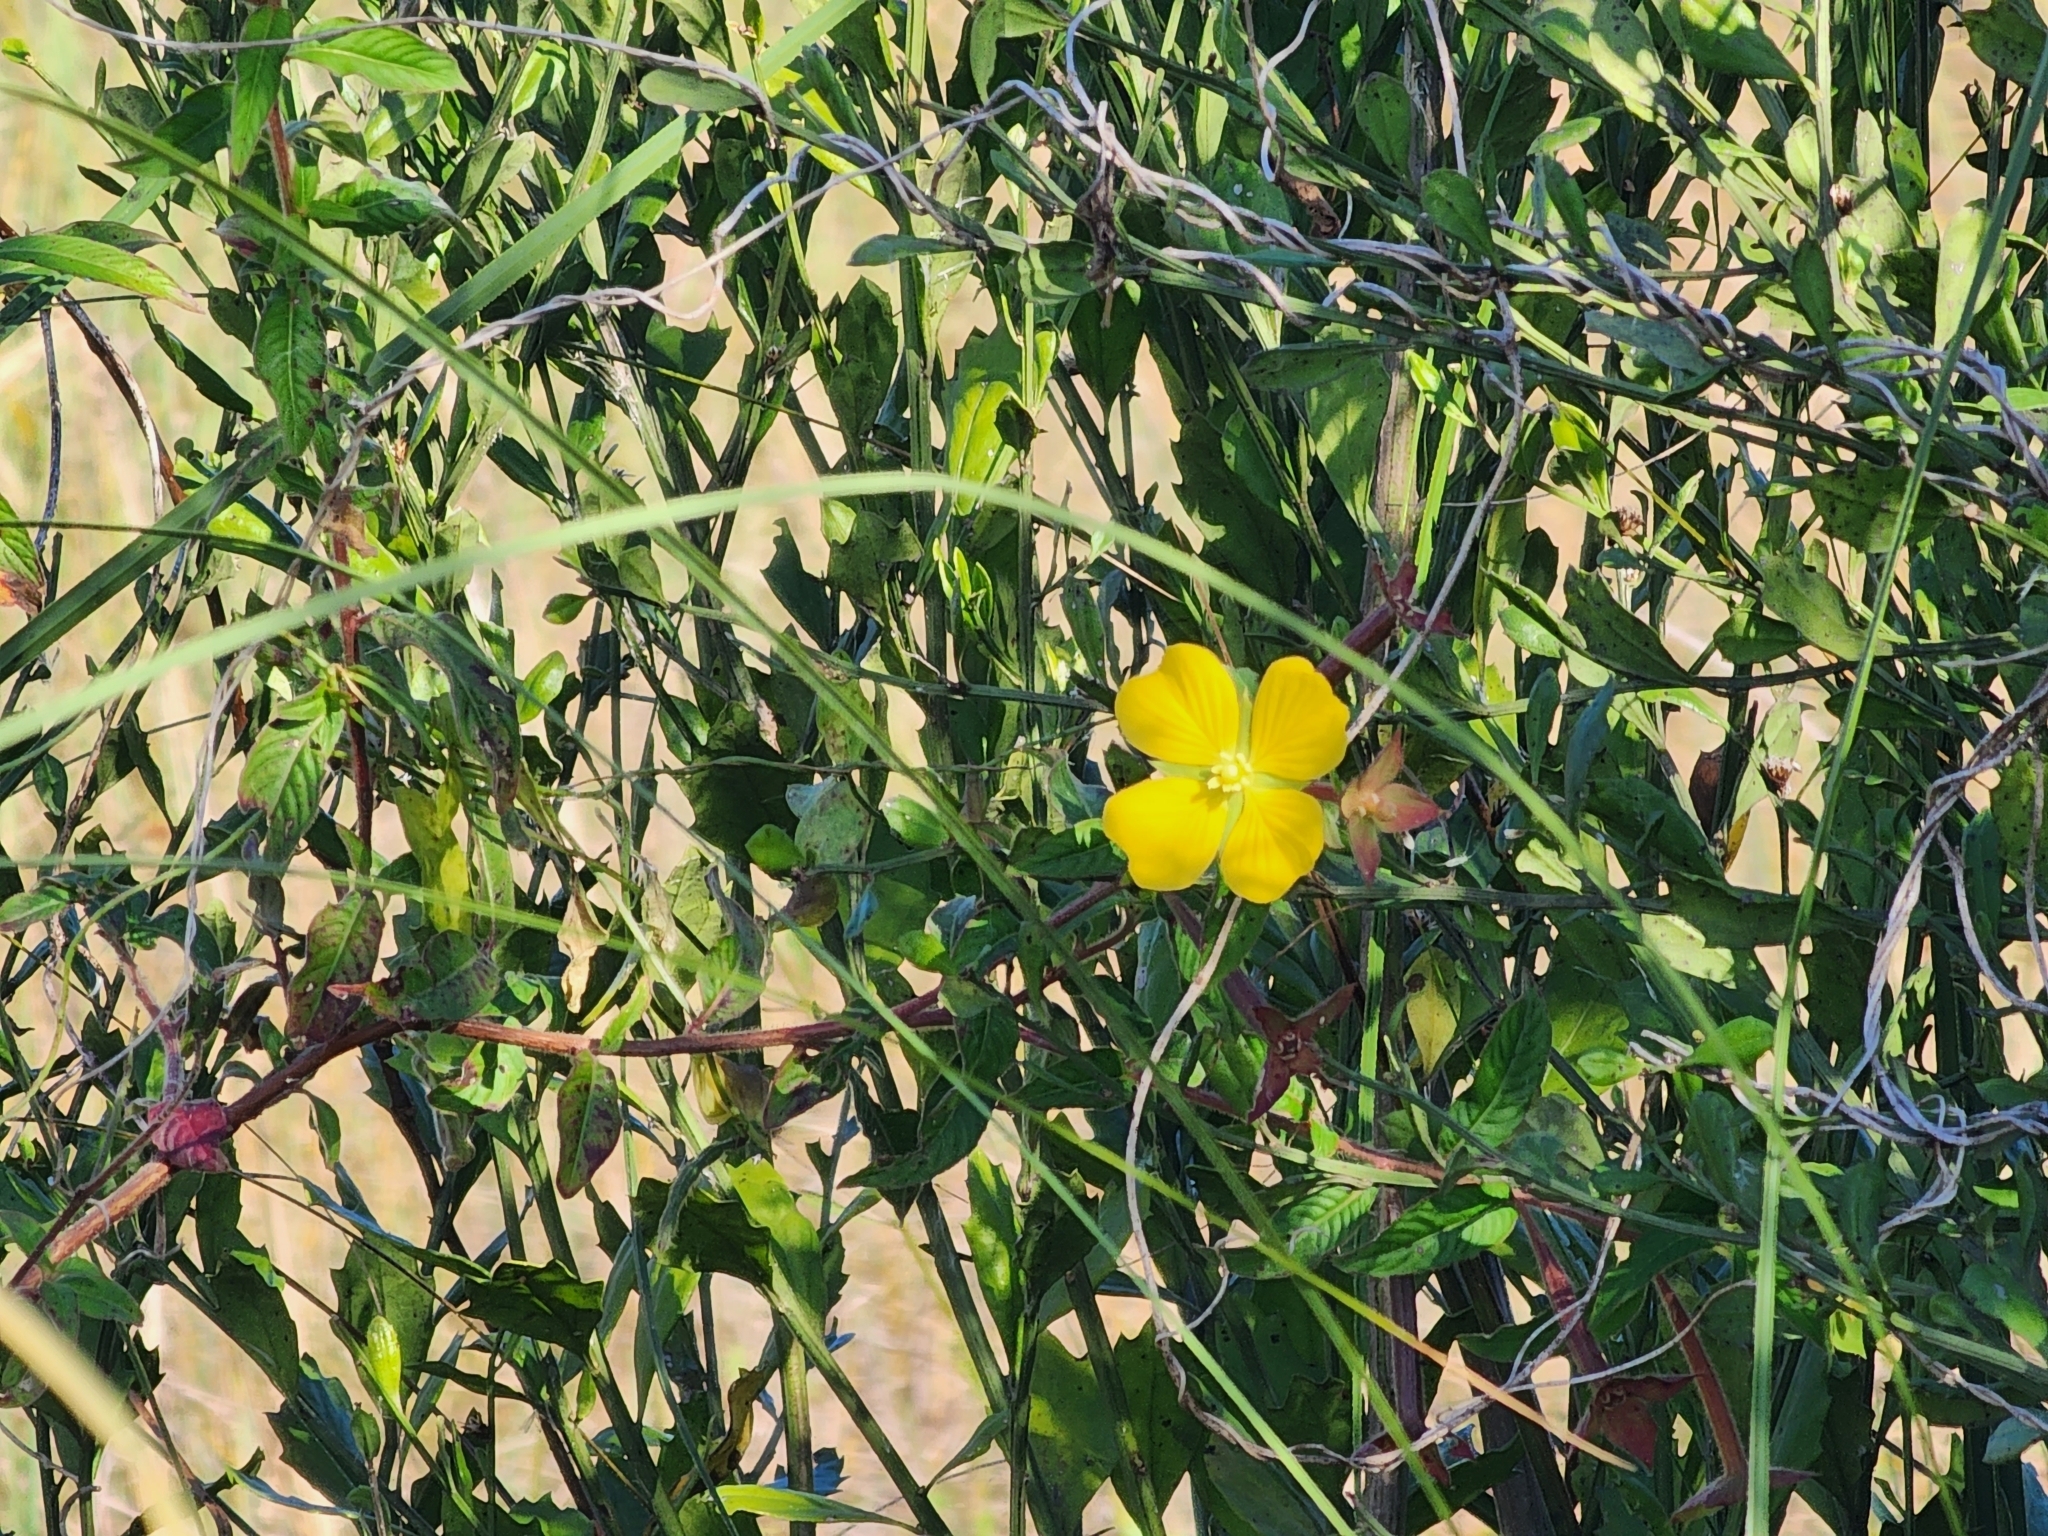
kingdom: Plantae
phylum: Tracheophyta
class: Magnoliopsida
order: Myrtales
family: Onagraceae
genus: Ludwigia
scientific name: Ludwigia octovalvis
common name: Water-primrose
